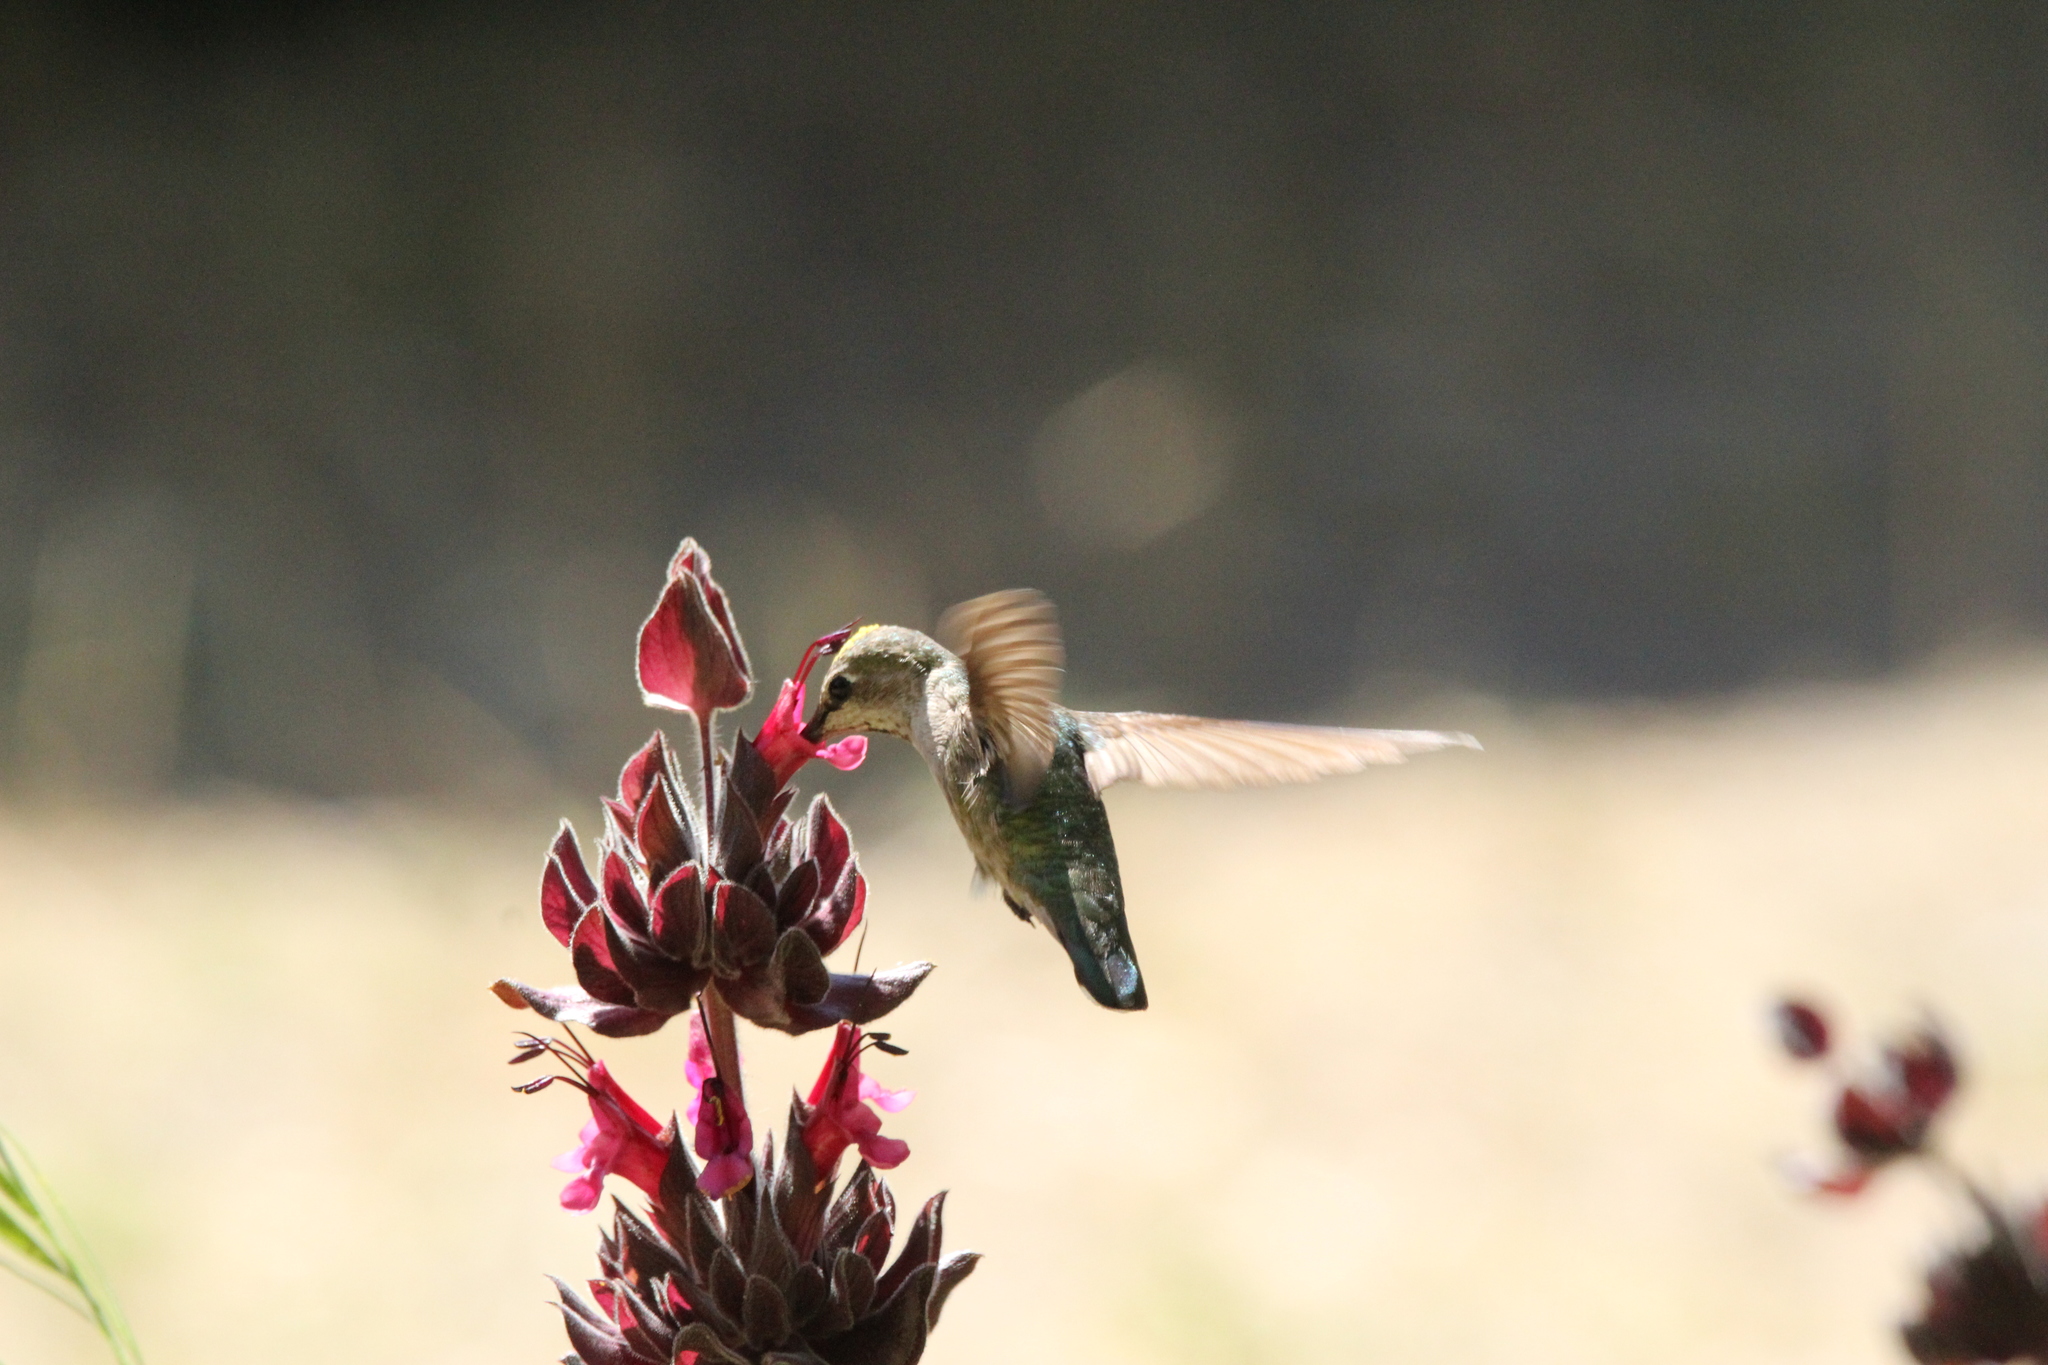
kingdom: Animalia
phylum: Chordata
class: Aves
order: Apodiformes
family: Trochilidae
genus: Calypte
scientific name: Calypte anna
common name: Anna's hummingbird
